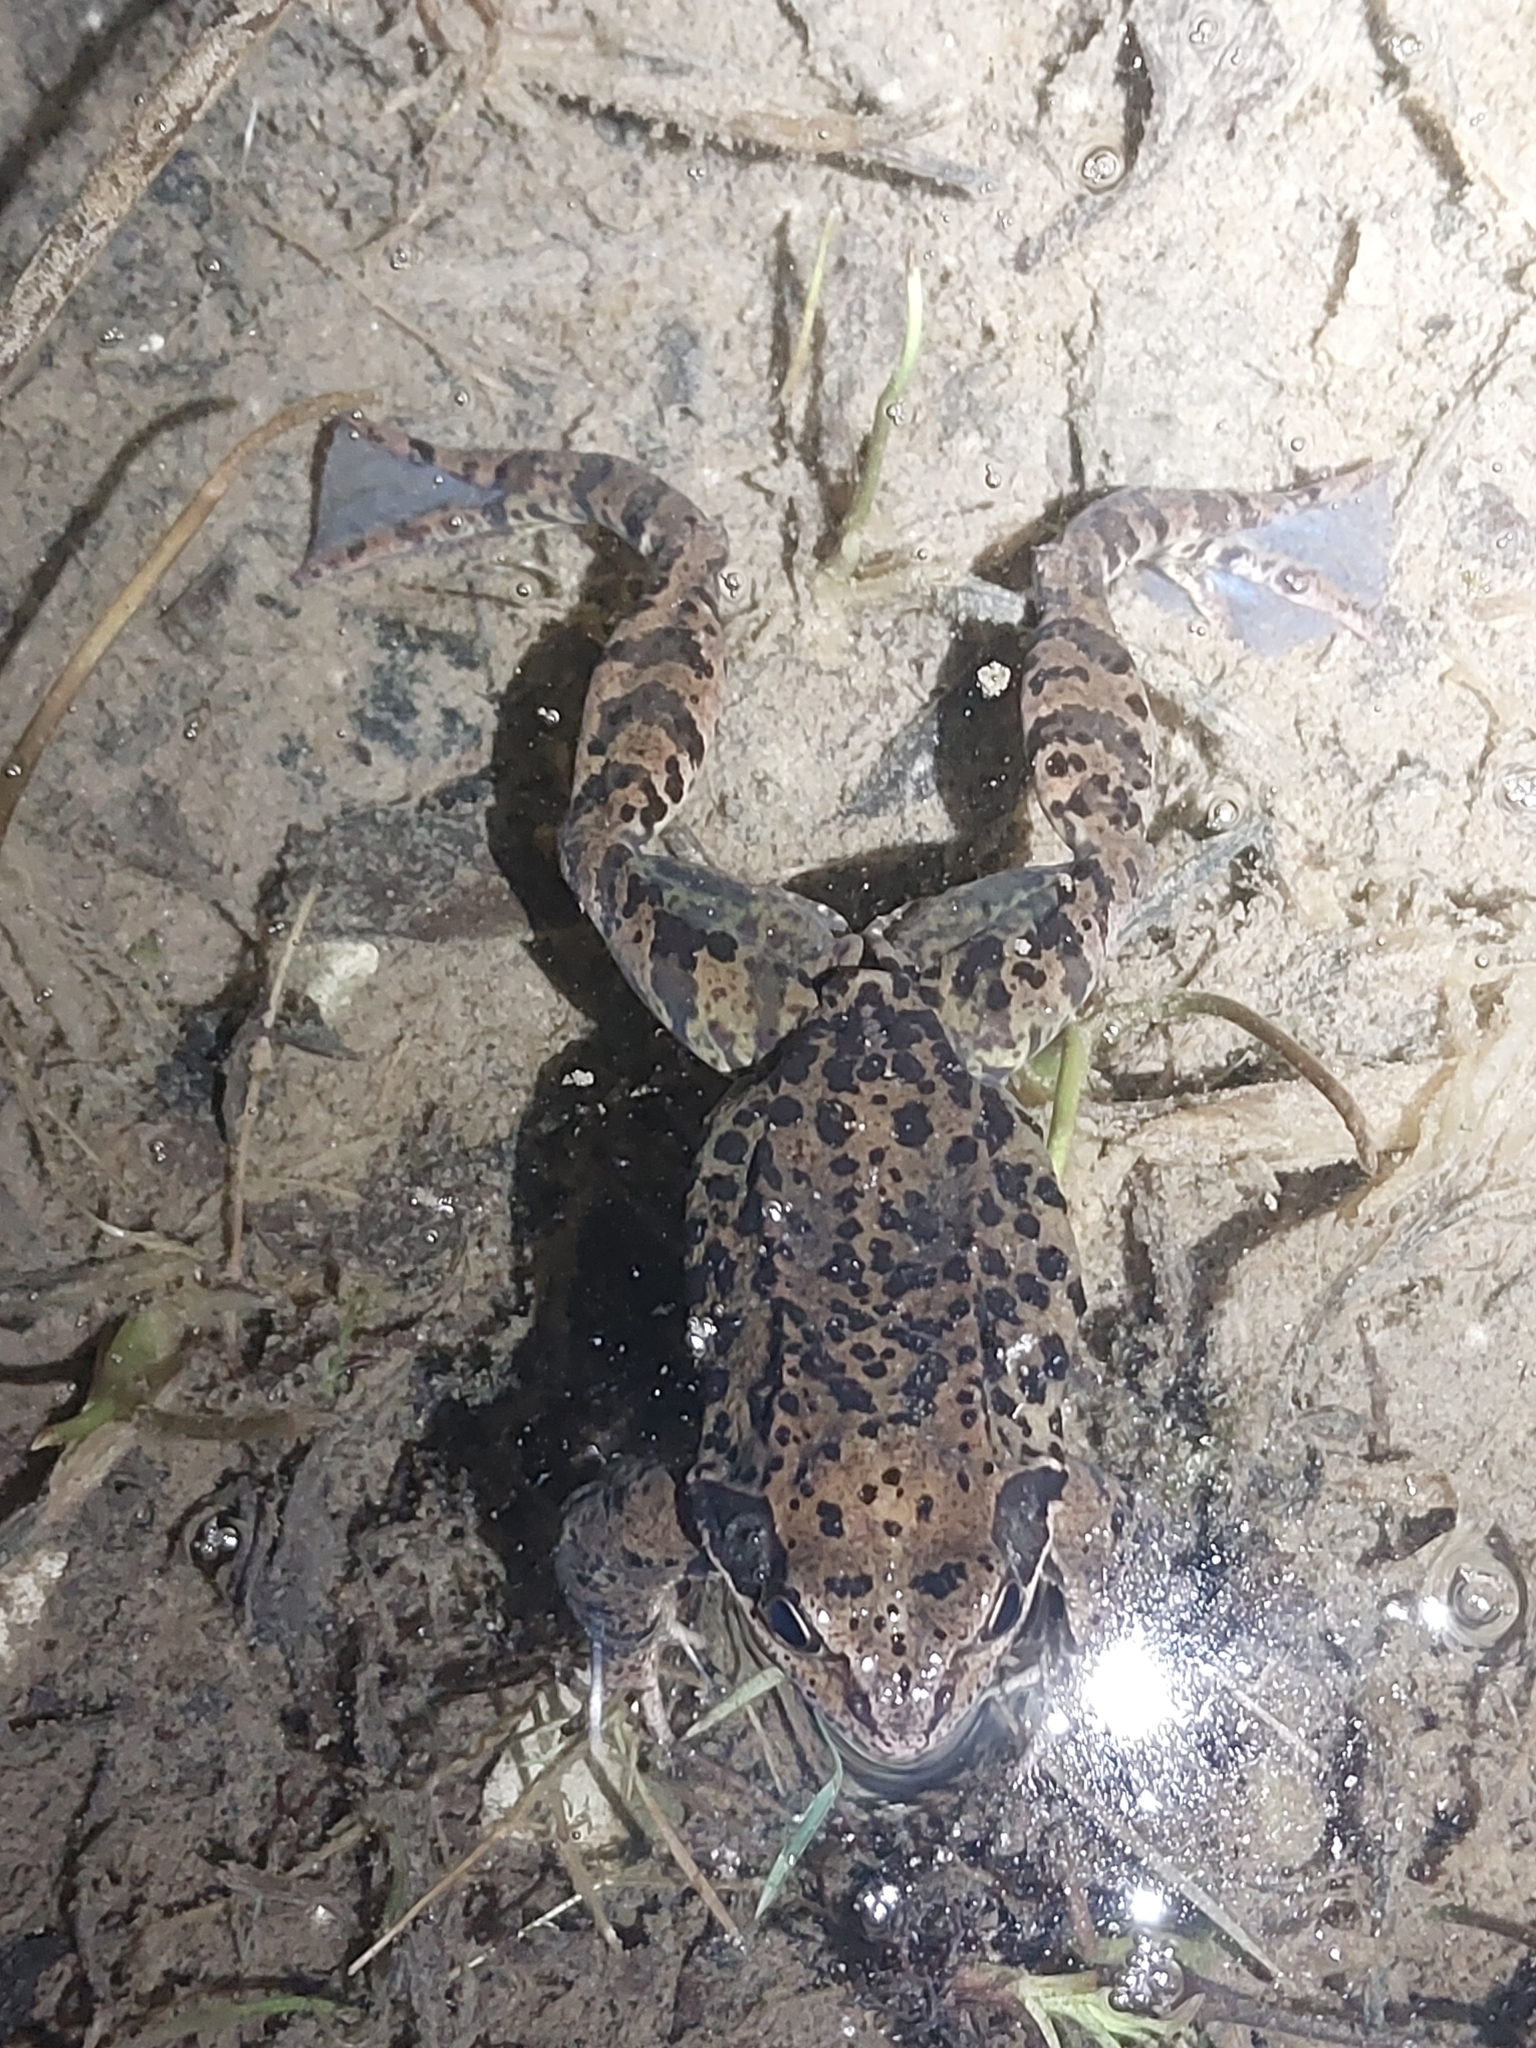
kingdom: Animalia
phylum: Chordata
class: Amphibia
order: Anura
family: Ranidae
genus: Rana
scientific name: Rana temporaria
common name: Common frog
